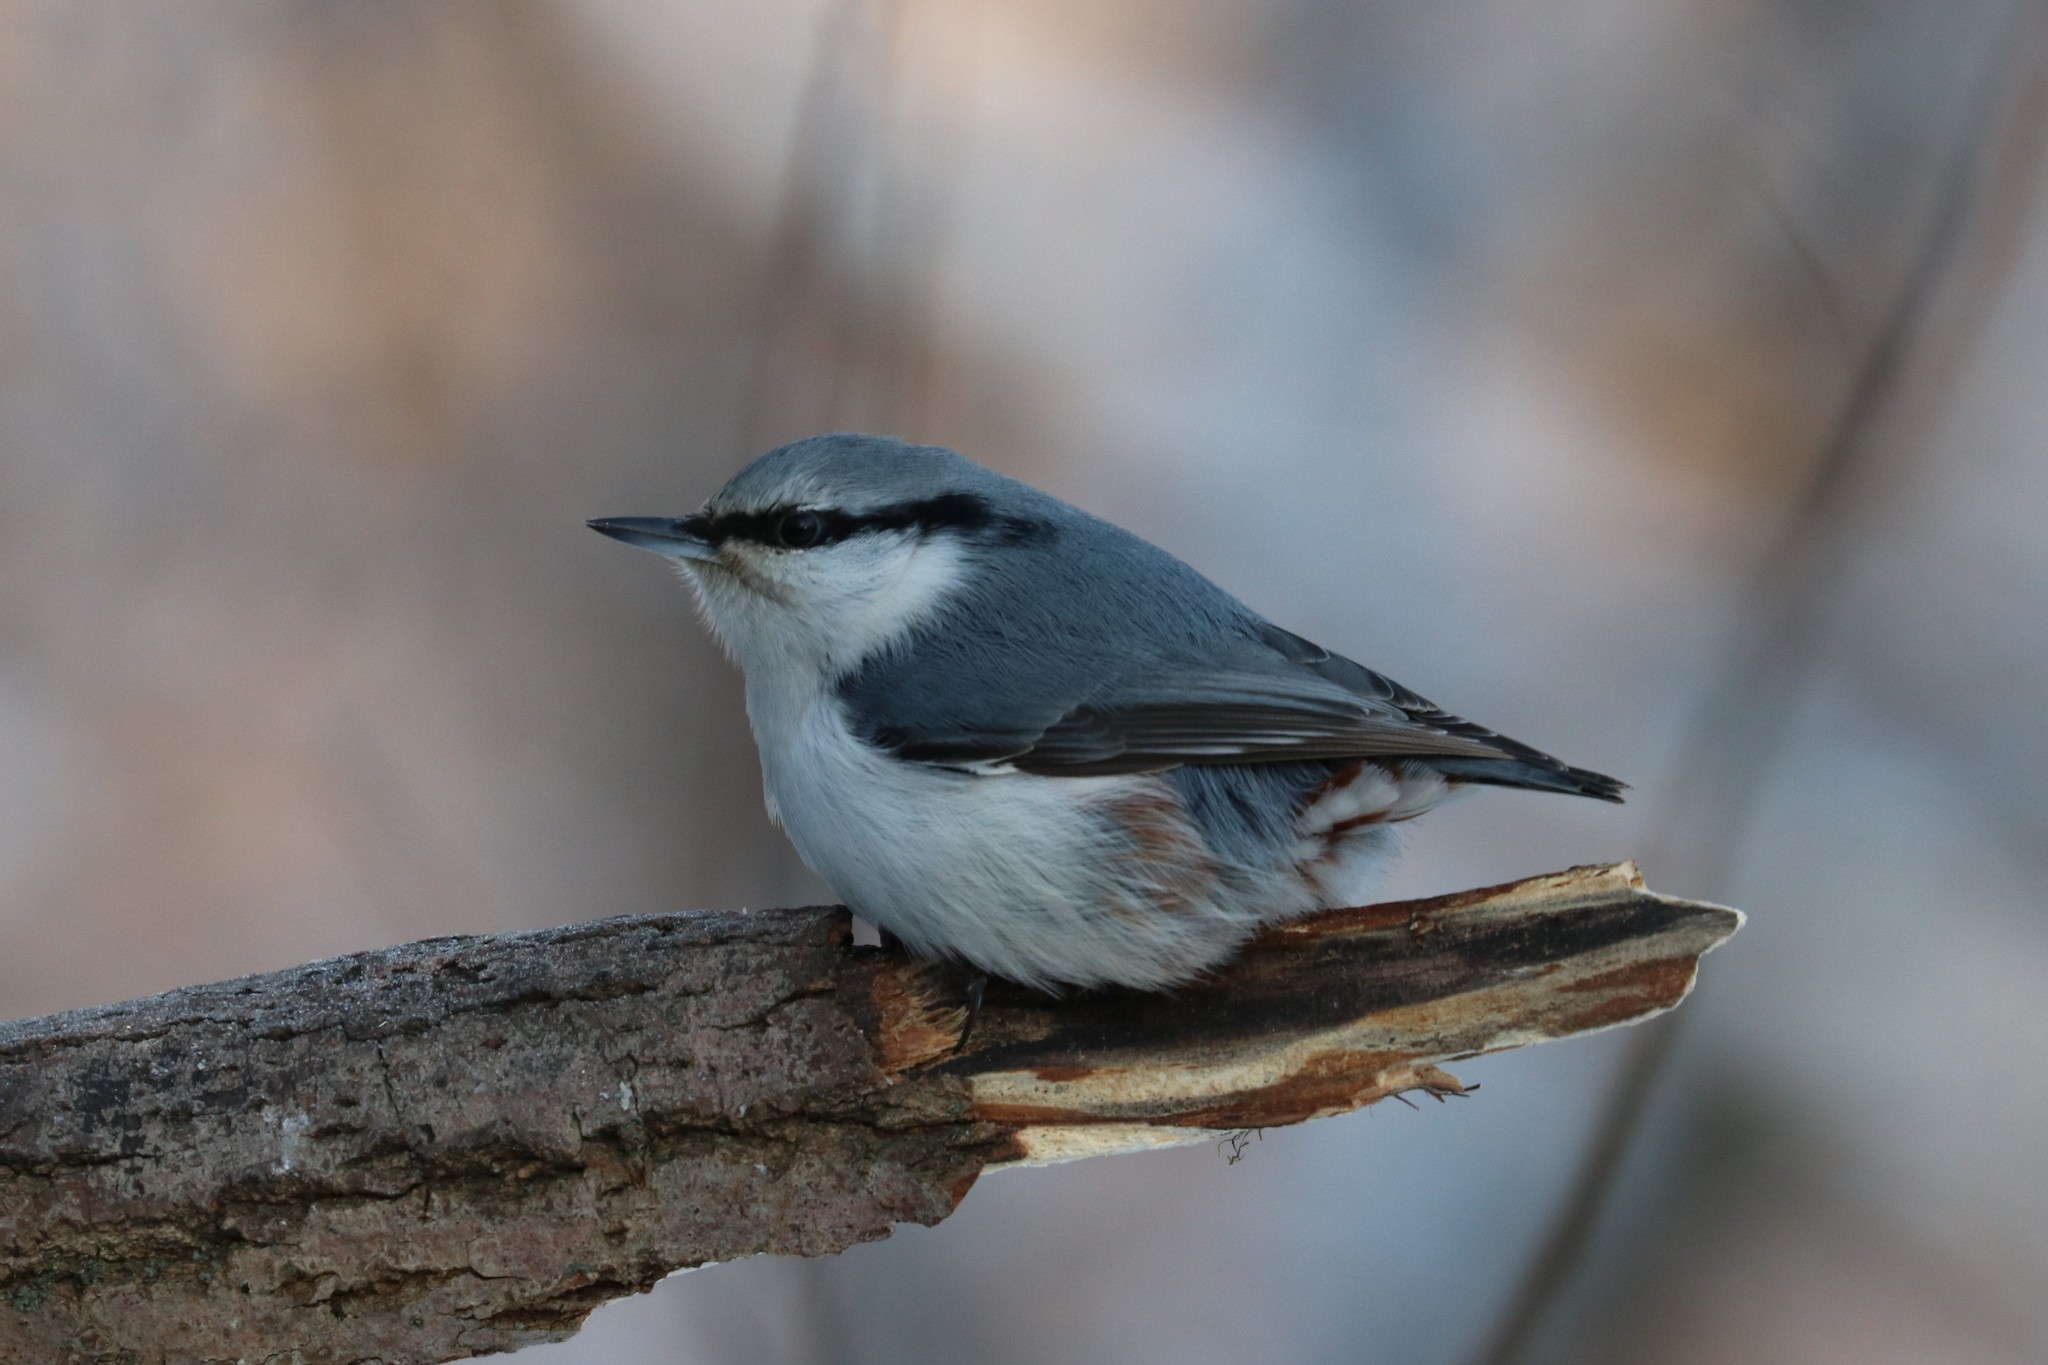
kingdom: Animalia
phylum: Chordata
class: Aves
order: Passeriformes
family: Sittidae
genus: Sitta
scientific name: Sitta europaea
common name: Eurasian nuthatch
